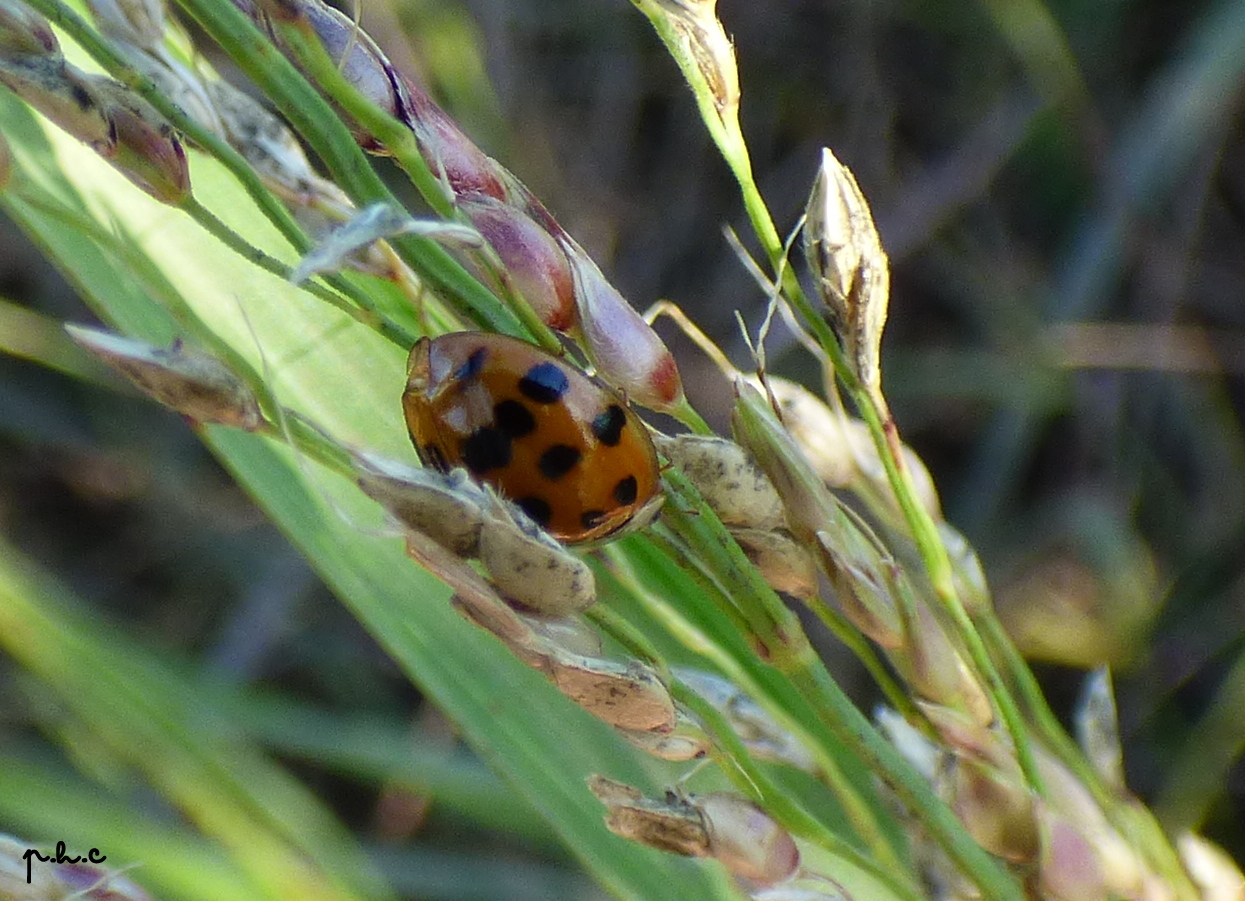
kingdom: Animalia
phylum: Arthropoda
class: Insecta
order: Coleoptera
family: Coccinellidae
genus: Harmonia
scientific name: Harmonia axyridis
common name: Harlequin ladybird
